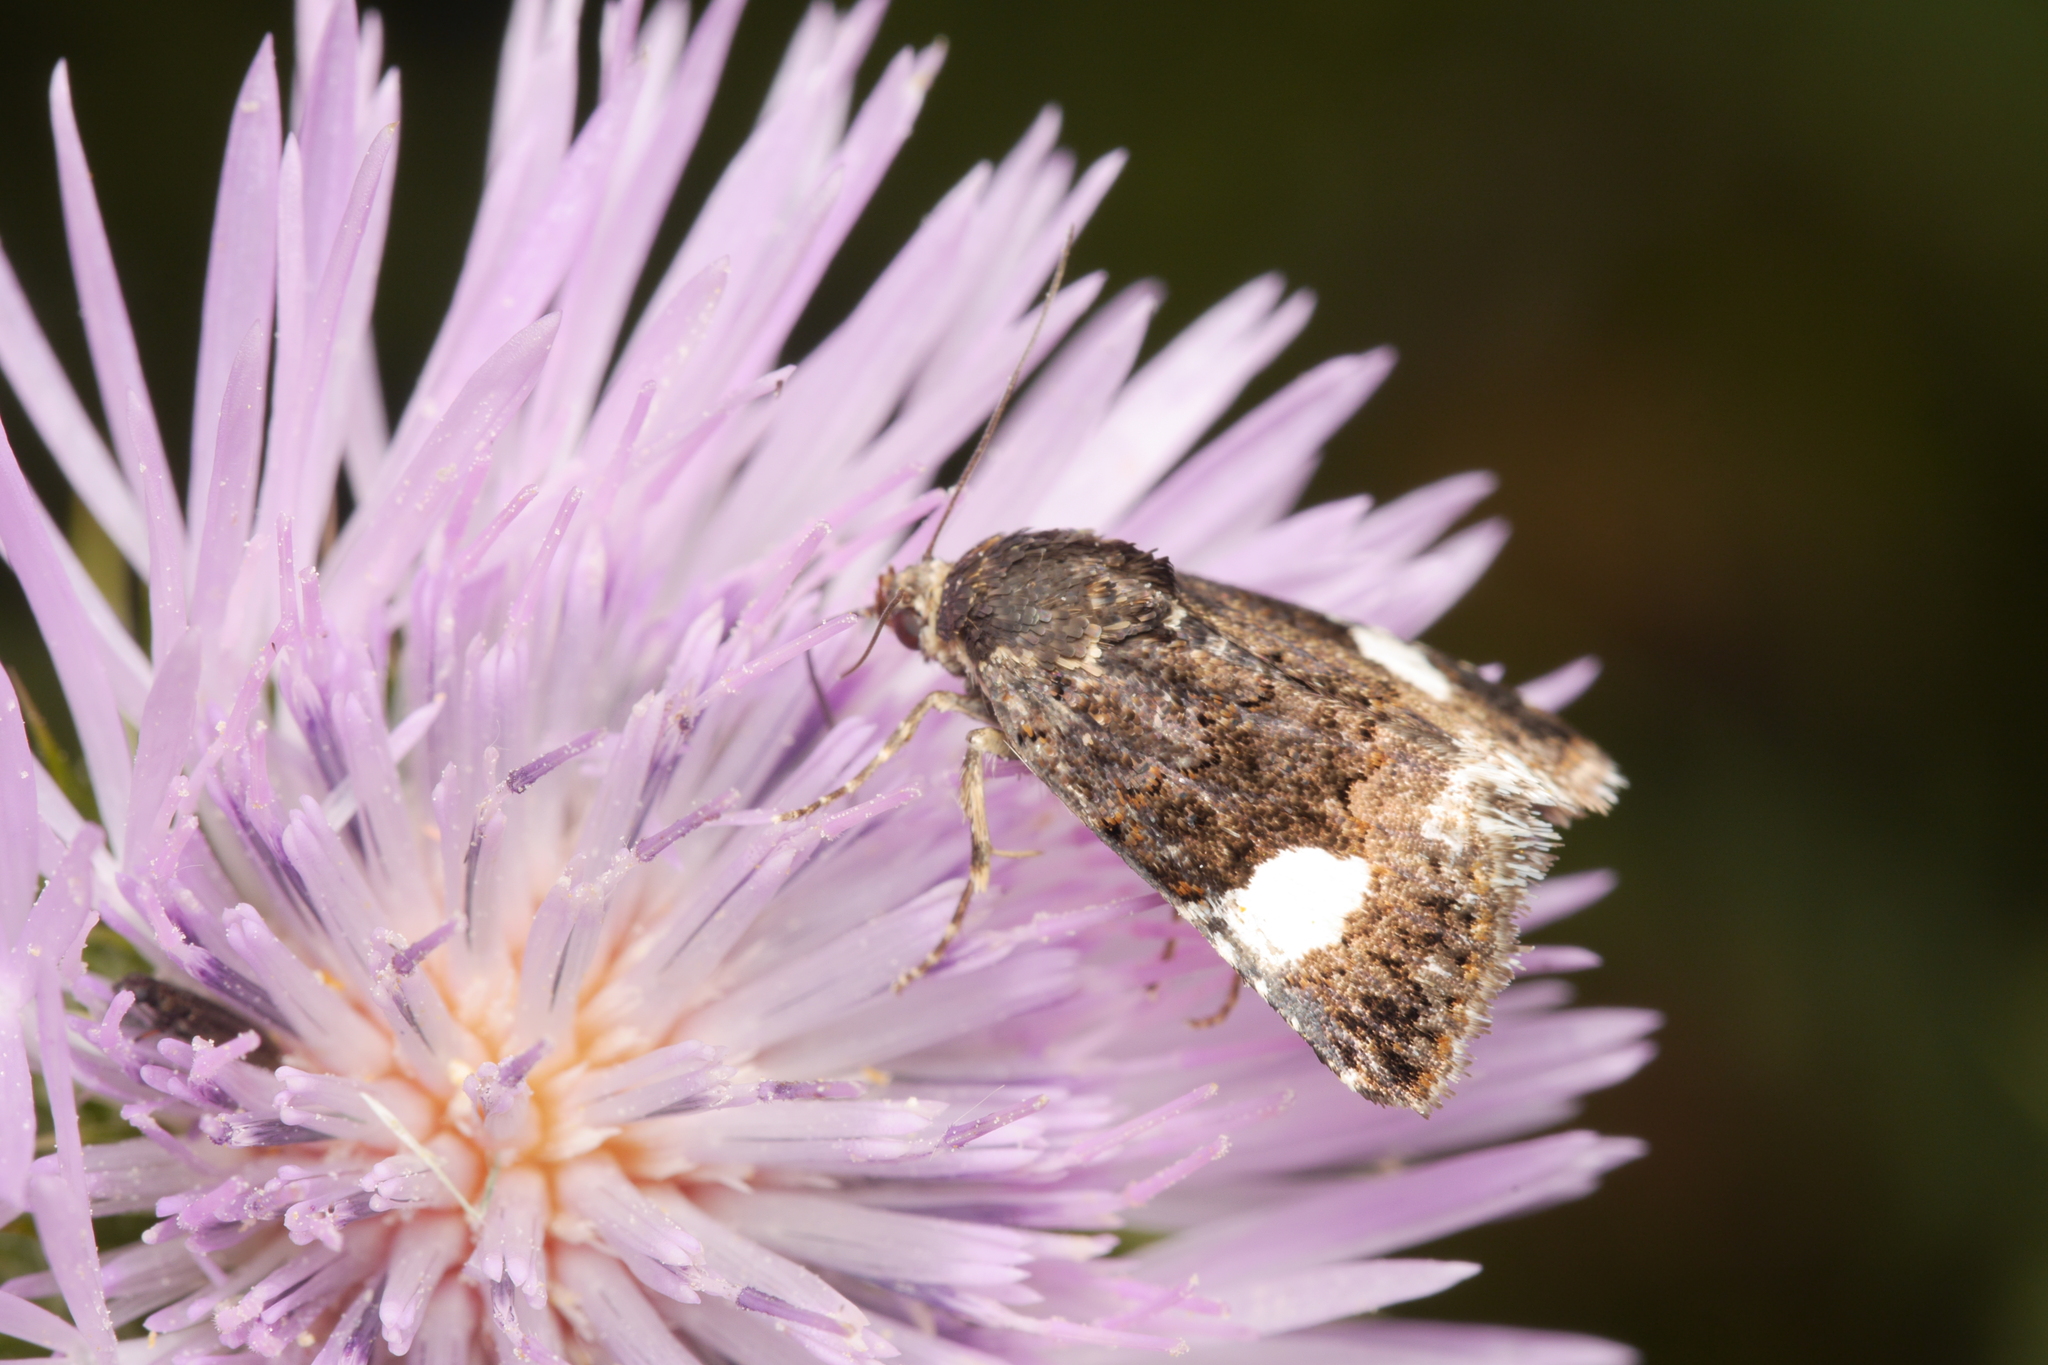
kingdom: Animalia
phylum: Arthropoda
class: Insecta
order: Lepidoptera
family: Erebidae
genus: Tyta
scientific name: Tyta luctuosa
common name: Four-spotted
